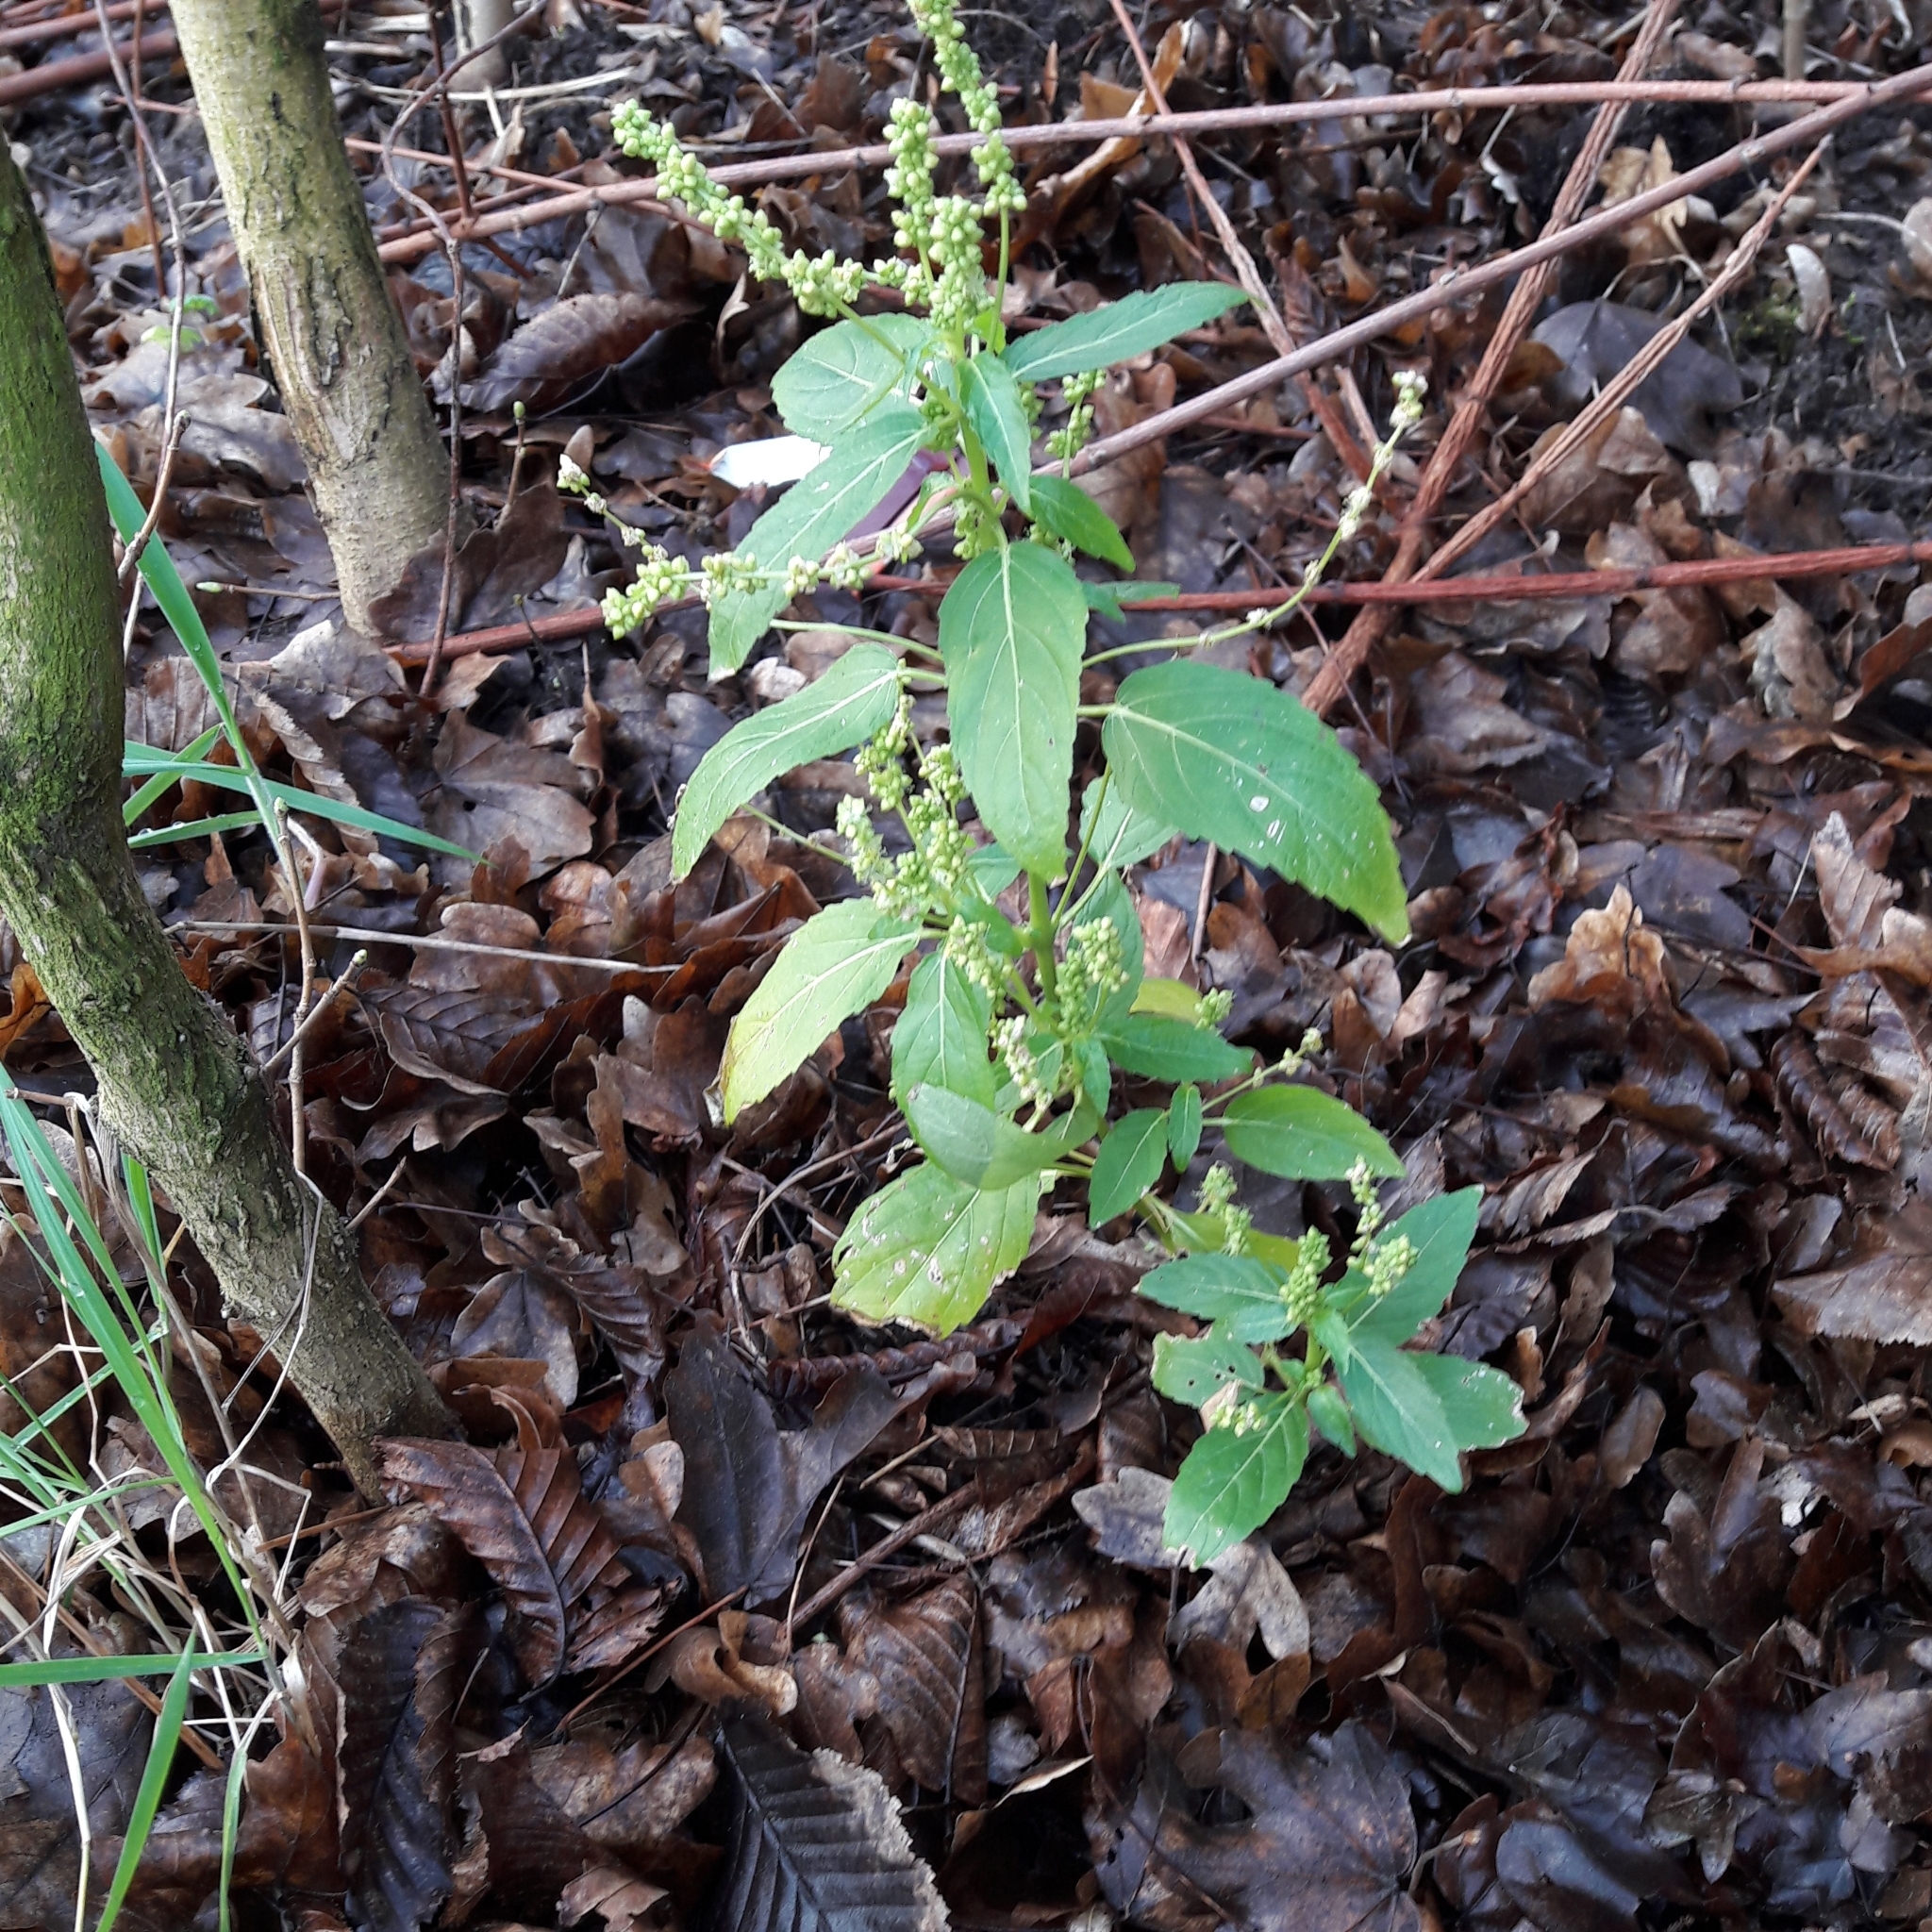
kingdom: Plantae
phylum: Tracheophyta
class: Magnoliopsida
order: Malpighiales
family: Euphorbiaceae
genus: Mercurialis
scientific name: Mercurialis annua
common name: Annual mercury
